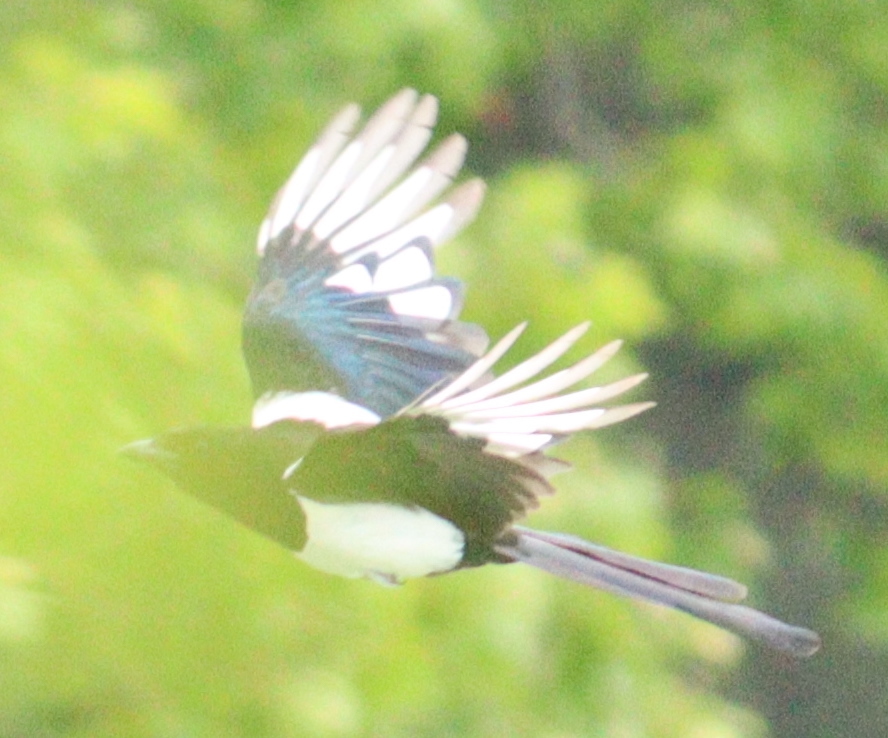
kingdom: Animalia
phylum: Chordata
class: Aves
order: Passeriformes
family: Corvidae
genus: Pica
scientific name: Pica pica
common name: Eurasian magpie
